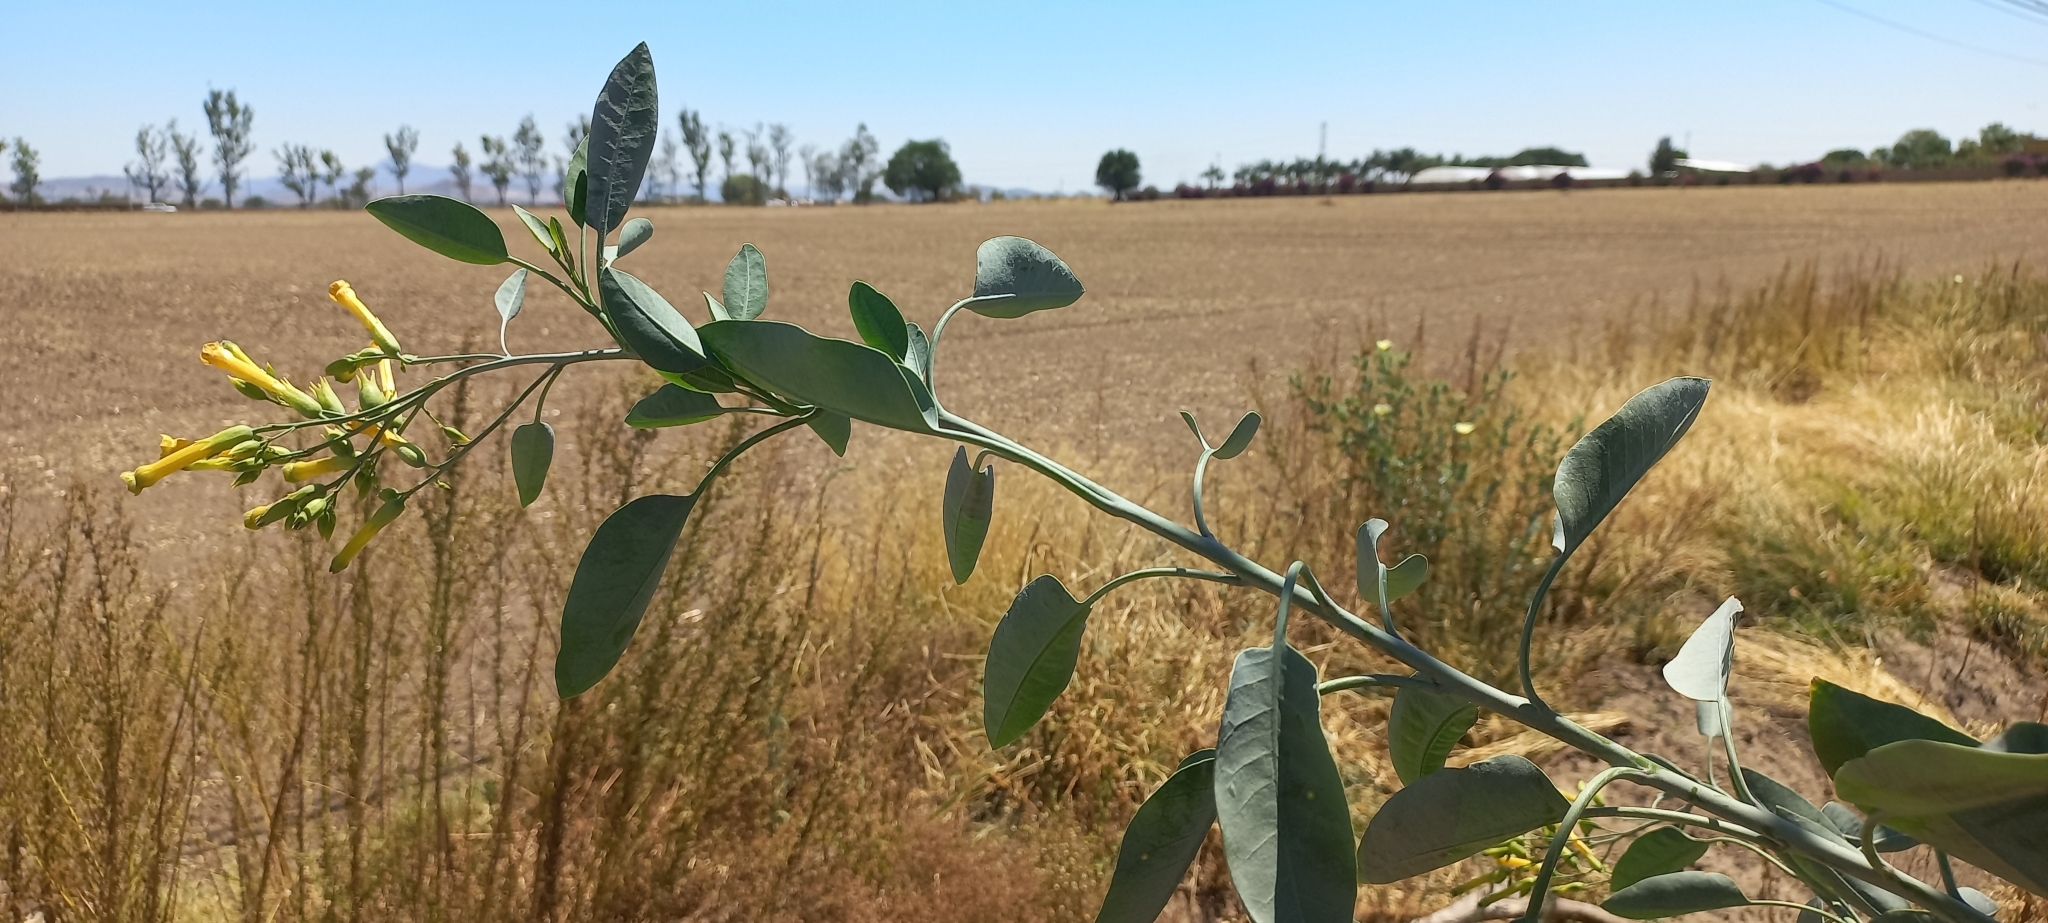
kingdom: Plantae
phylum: Tracheophyta
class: Magnoliopsida
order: Solanales
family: Solanaceae
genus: Nicotiana
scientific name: Nicotiana glauca
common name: Tree tobacco
